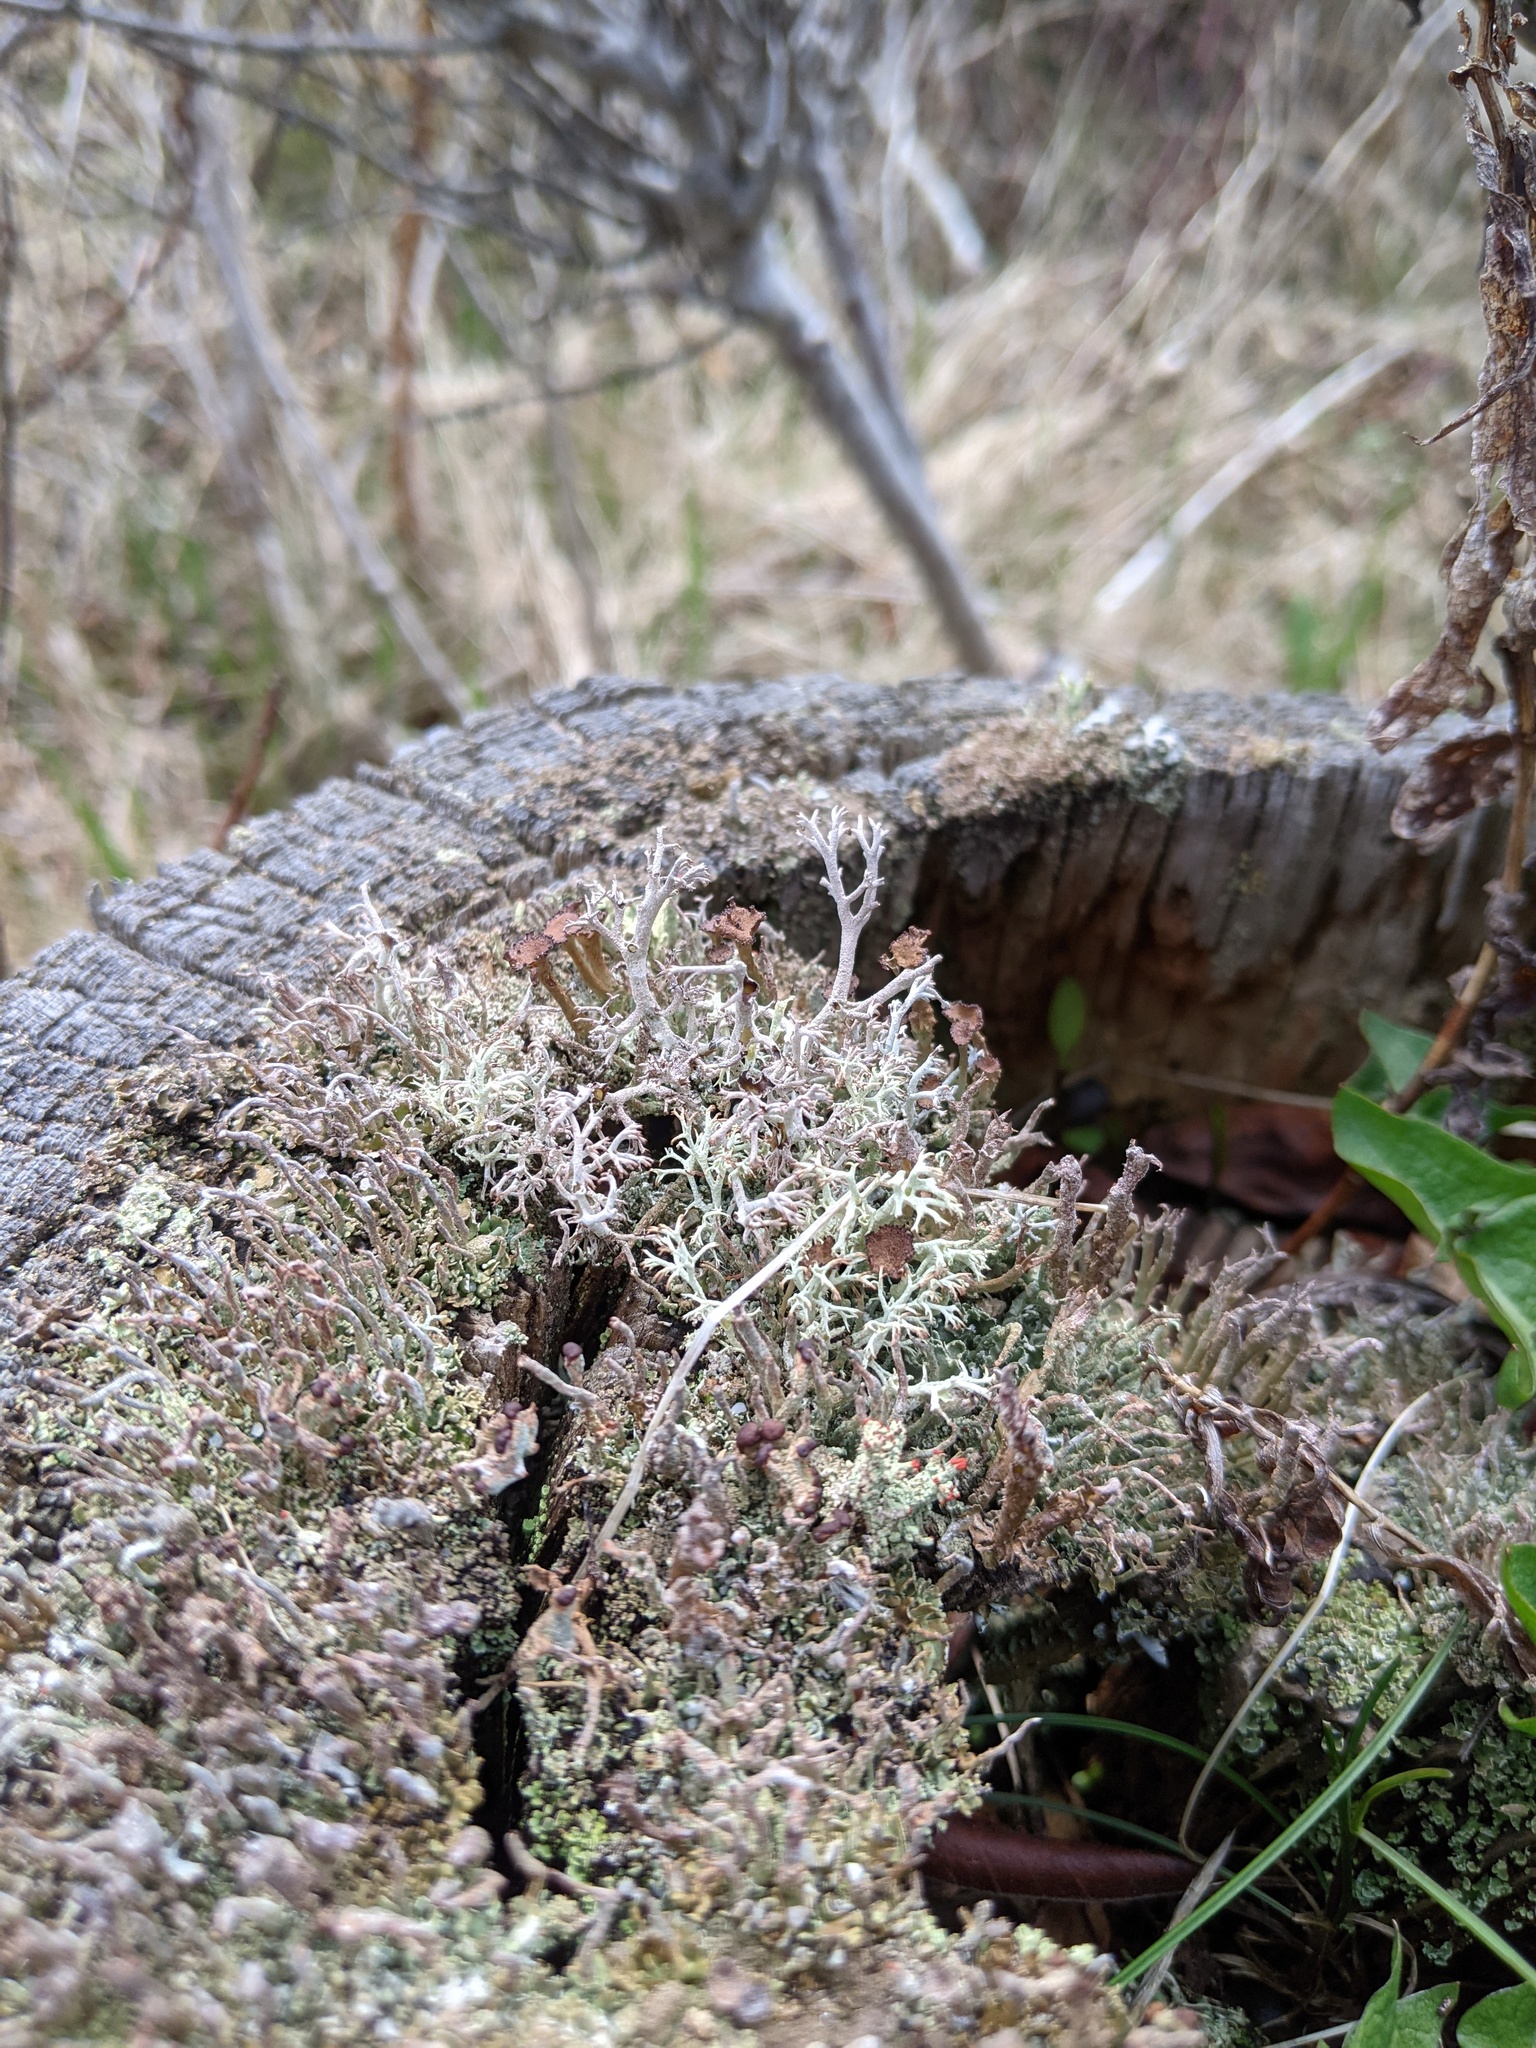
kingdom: Fungi
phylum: Ascomycota
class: Lecanoromycetes
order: Lecanorales
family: Cladoniaceae
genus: Cladonia
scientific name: Cladonia cristatella
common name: British soldier lichen
